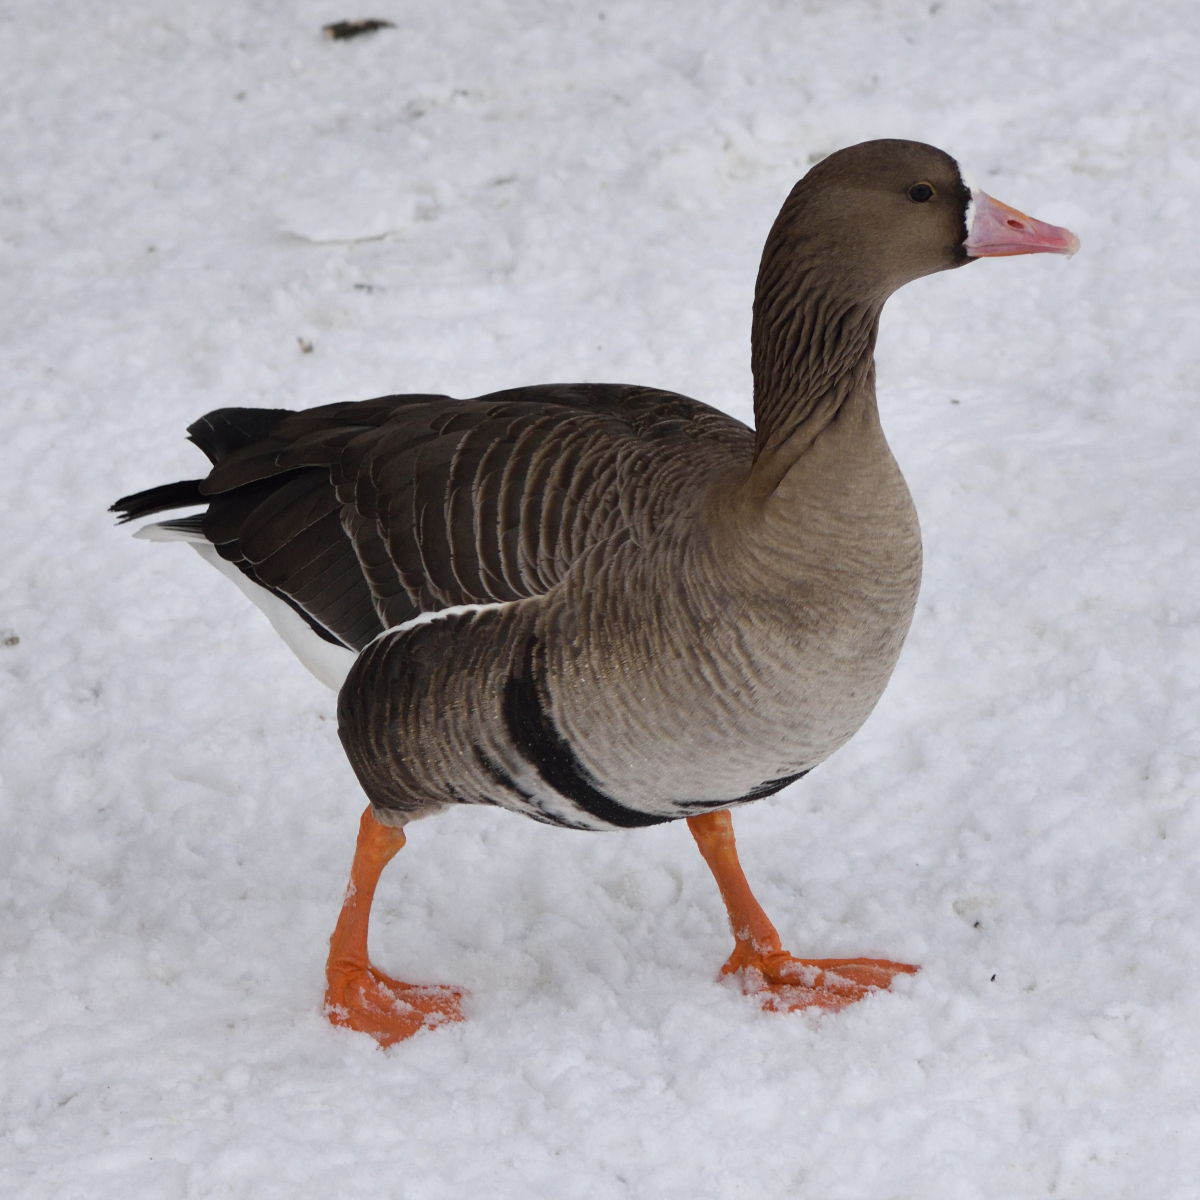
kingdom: Animalia
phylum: Chordata
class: Aves
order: Anseriformes
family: Anatidae
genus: Anser
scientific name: Anser albifrons
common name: Greater white-fronted goose
